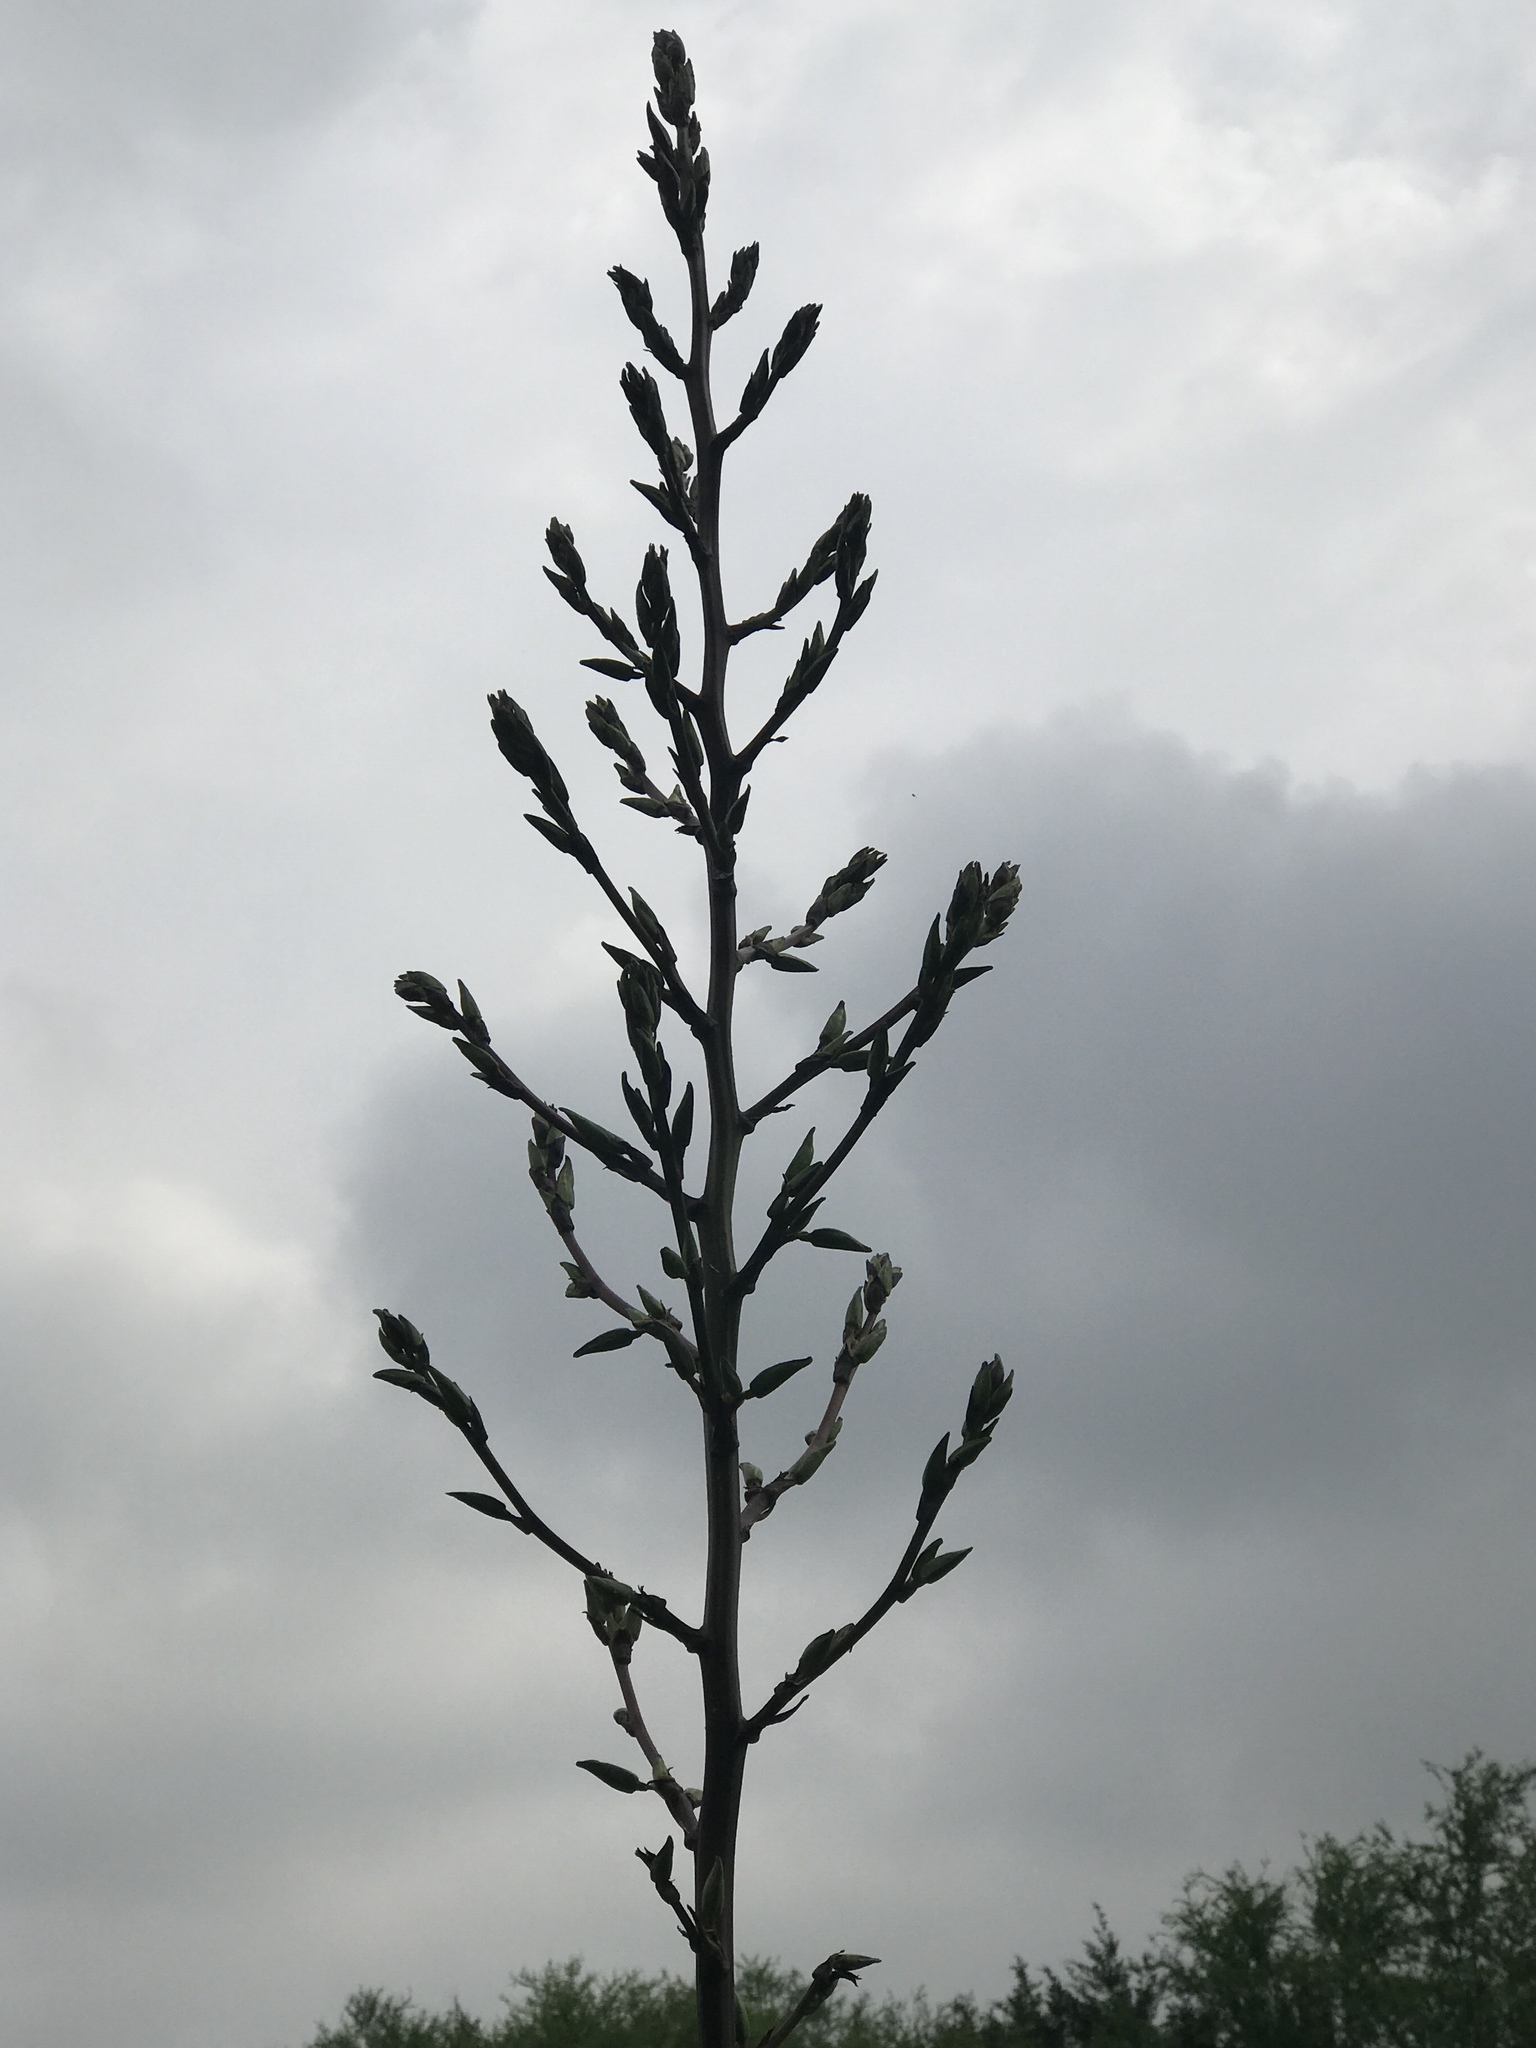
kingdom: Plantae
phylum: Tracheophyta
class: Liliopsida
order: Asparagales
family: Asparagaceae
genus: Yucca
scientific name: Yucca constricta
